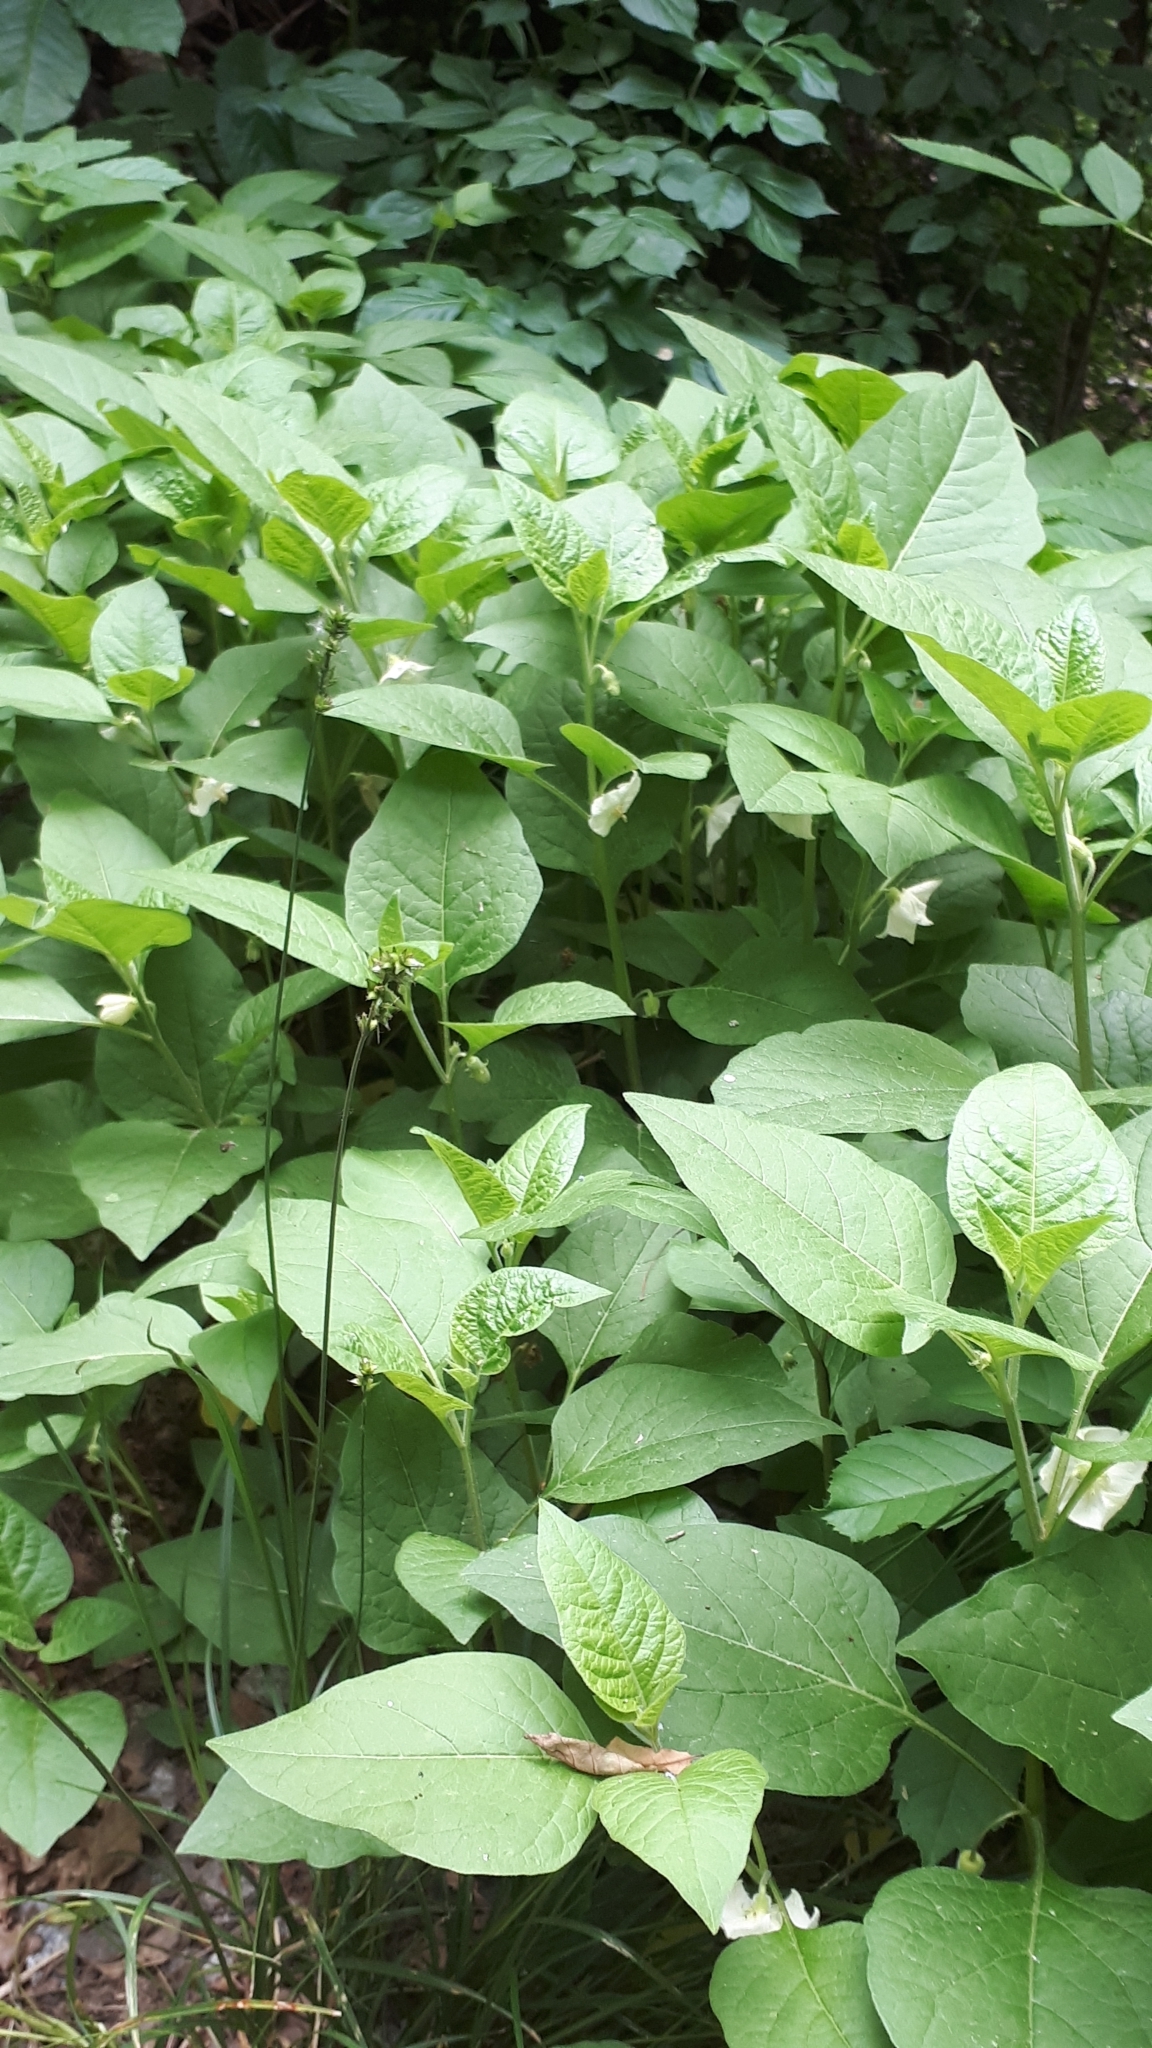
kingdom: Plantae
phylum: Tracheophyta
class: Magnoliopsida
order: Solanales
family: Solanaceae
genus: Alkekengi
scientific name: Alkekengi officinarum
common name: Japanese-lantern
